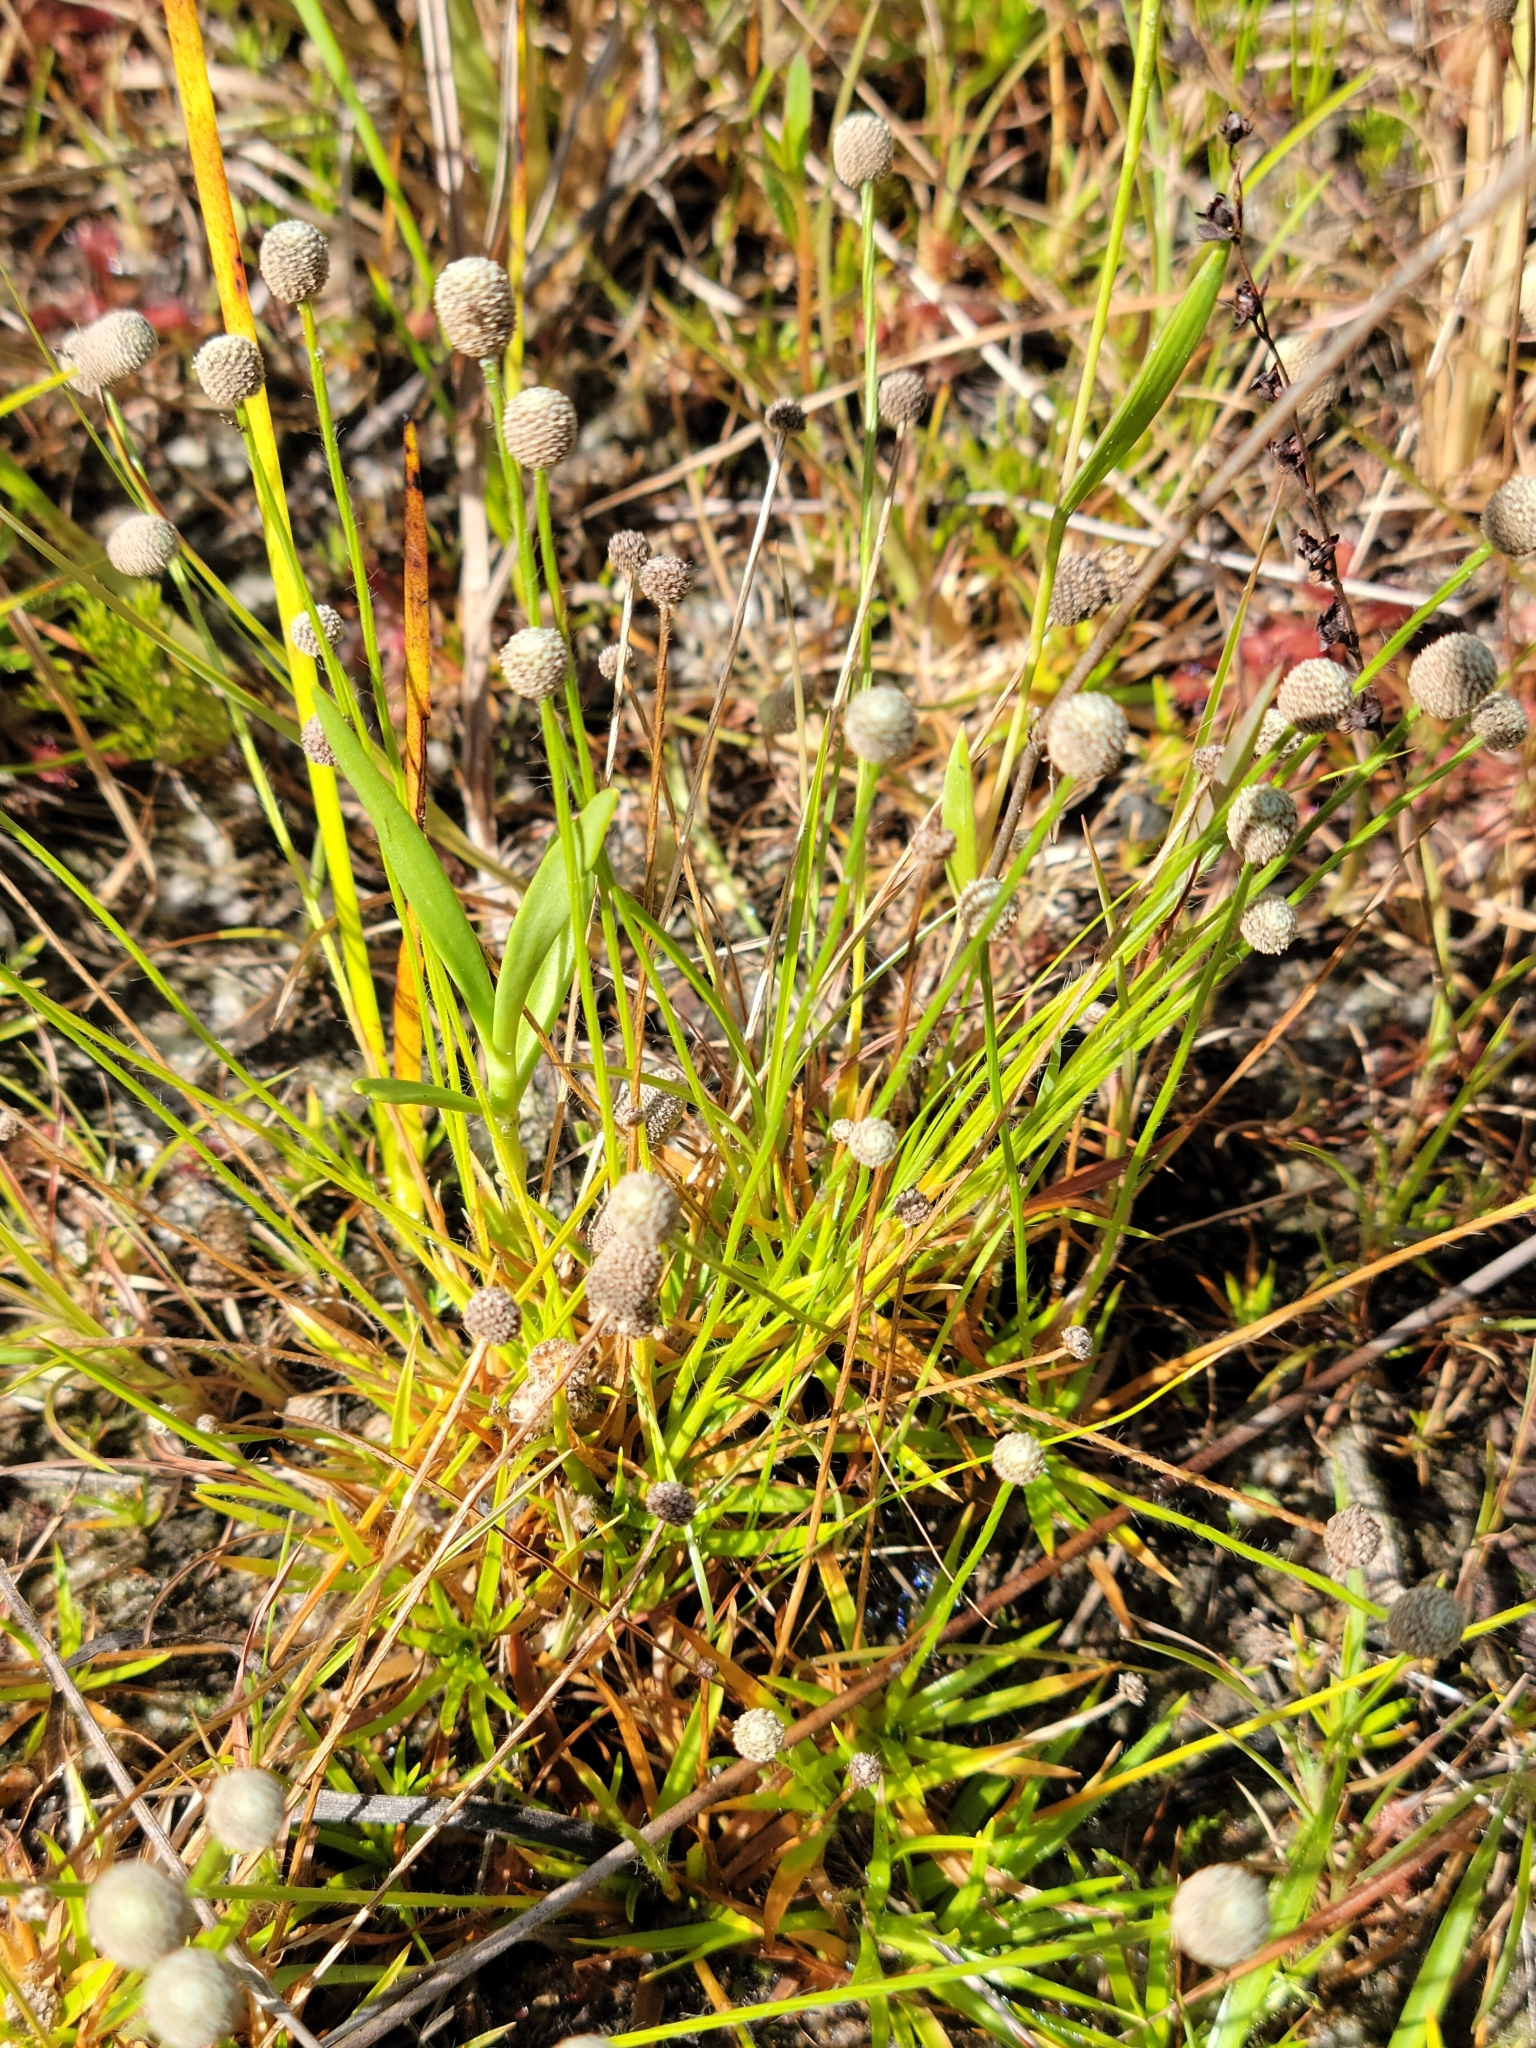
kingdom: Plantae
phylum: Tracheophyta
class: Liliopsida
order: Poales
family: Eriocaulaceae
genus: Paepalanthus
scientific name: Paepalanthus minus
